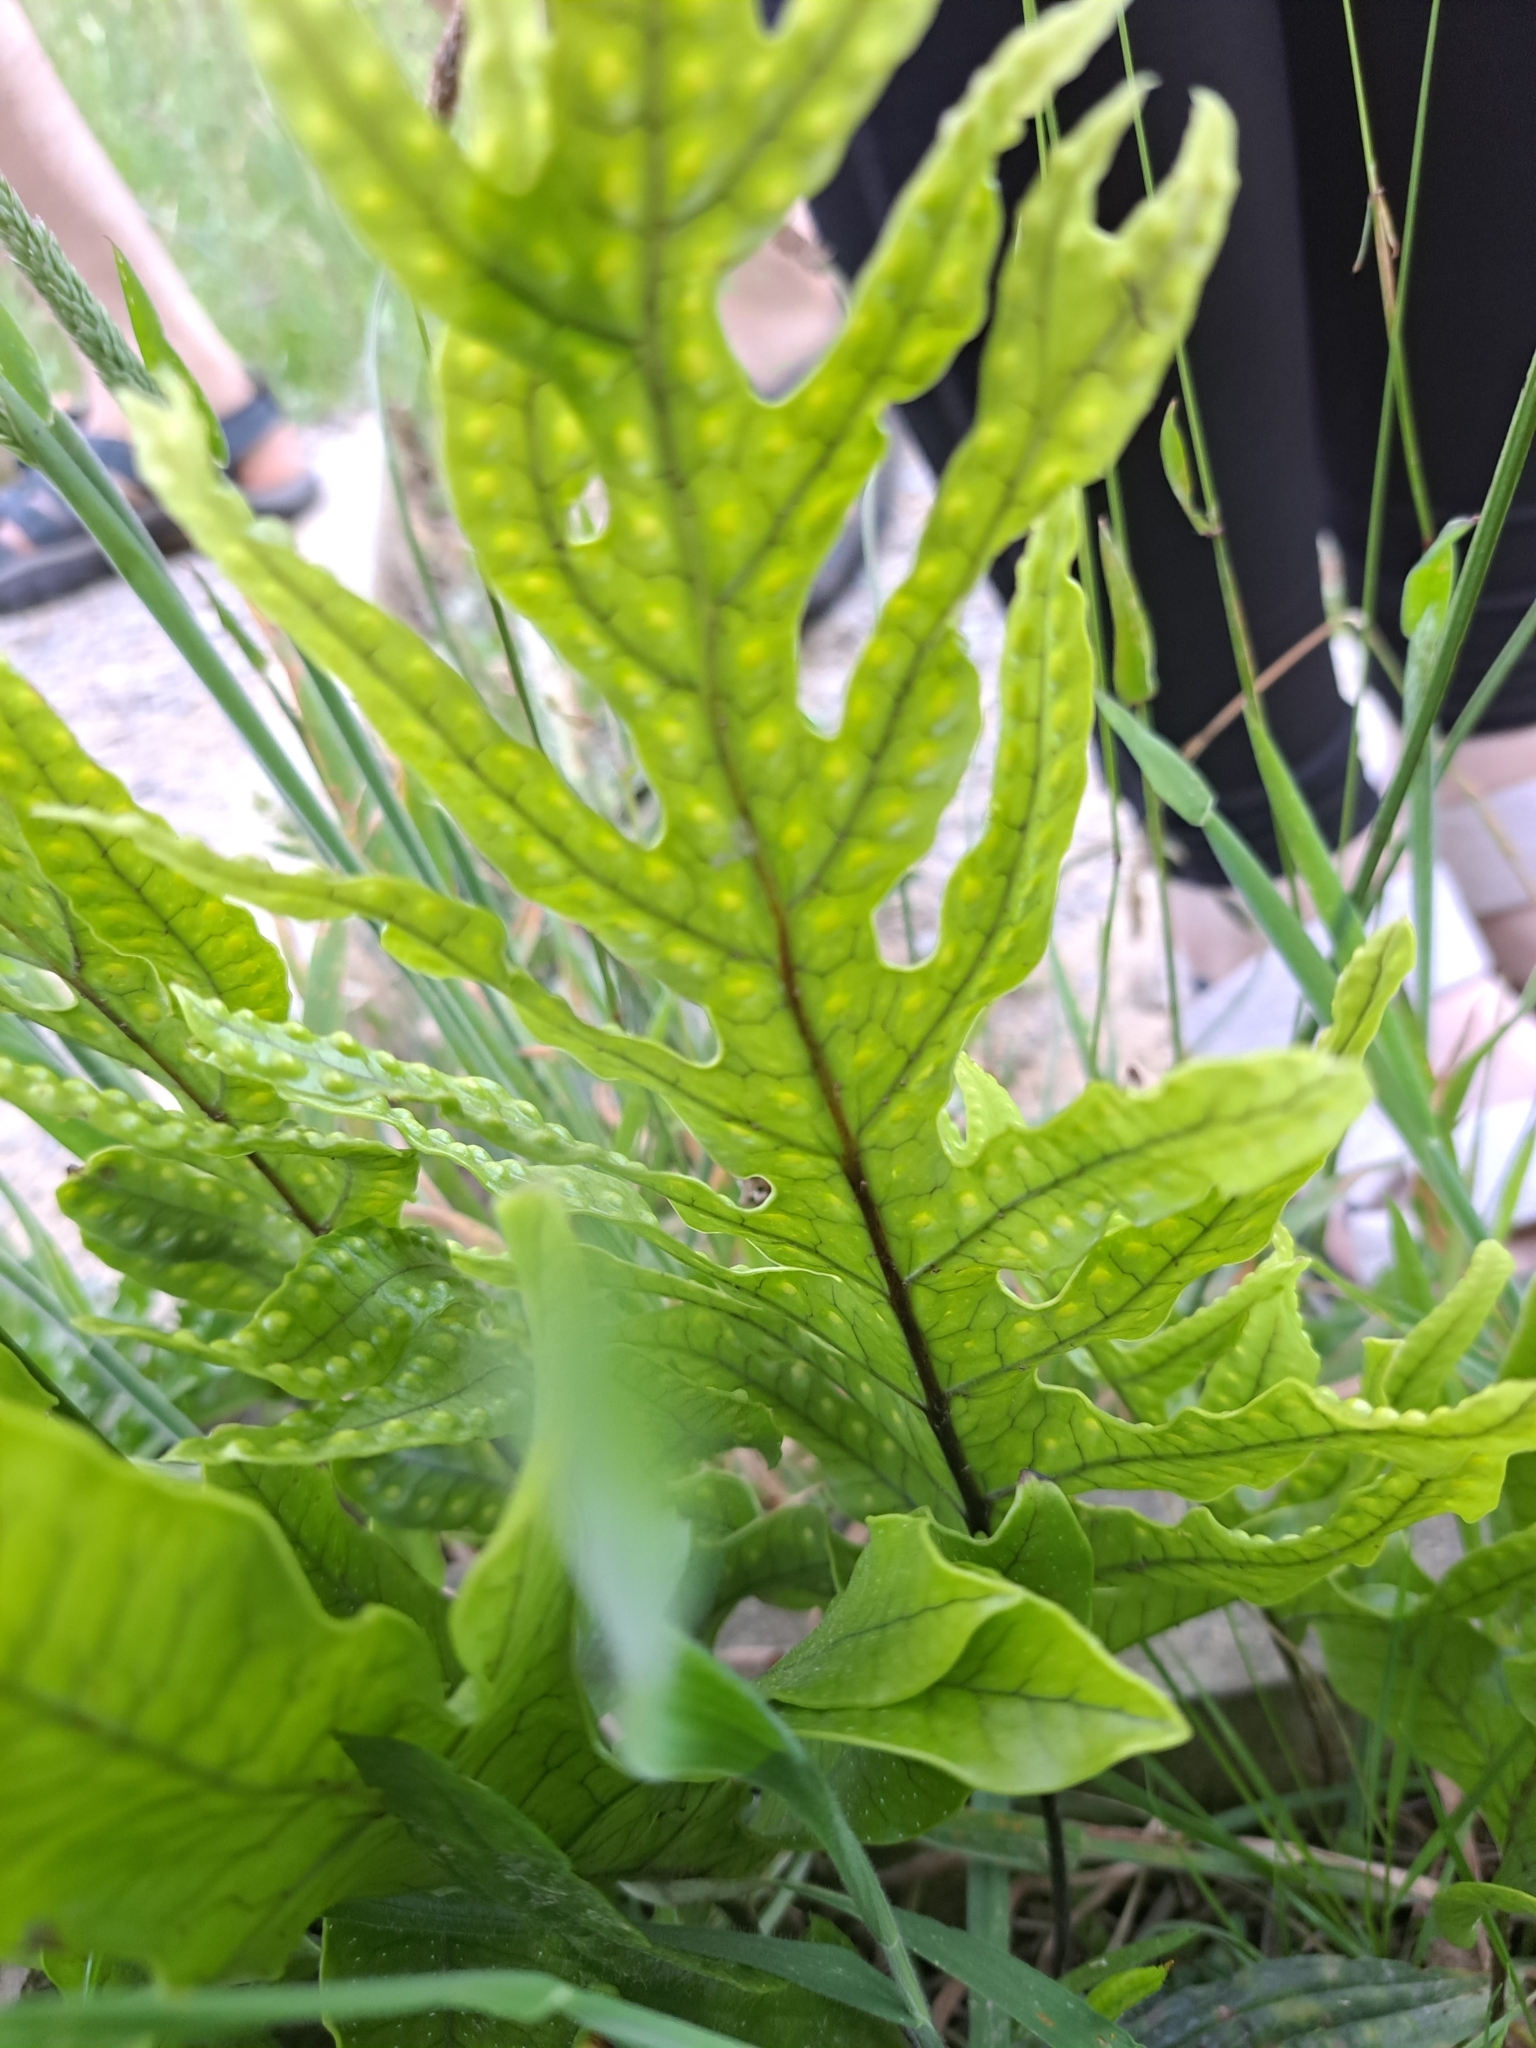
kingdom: Plantae
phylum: Tracheophyta
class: Polypodiopsida
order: Polypodiales
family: Polypodiaceae
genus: Lecanopteris
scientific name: Lecanopteris pustulata
